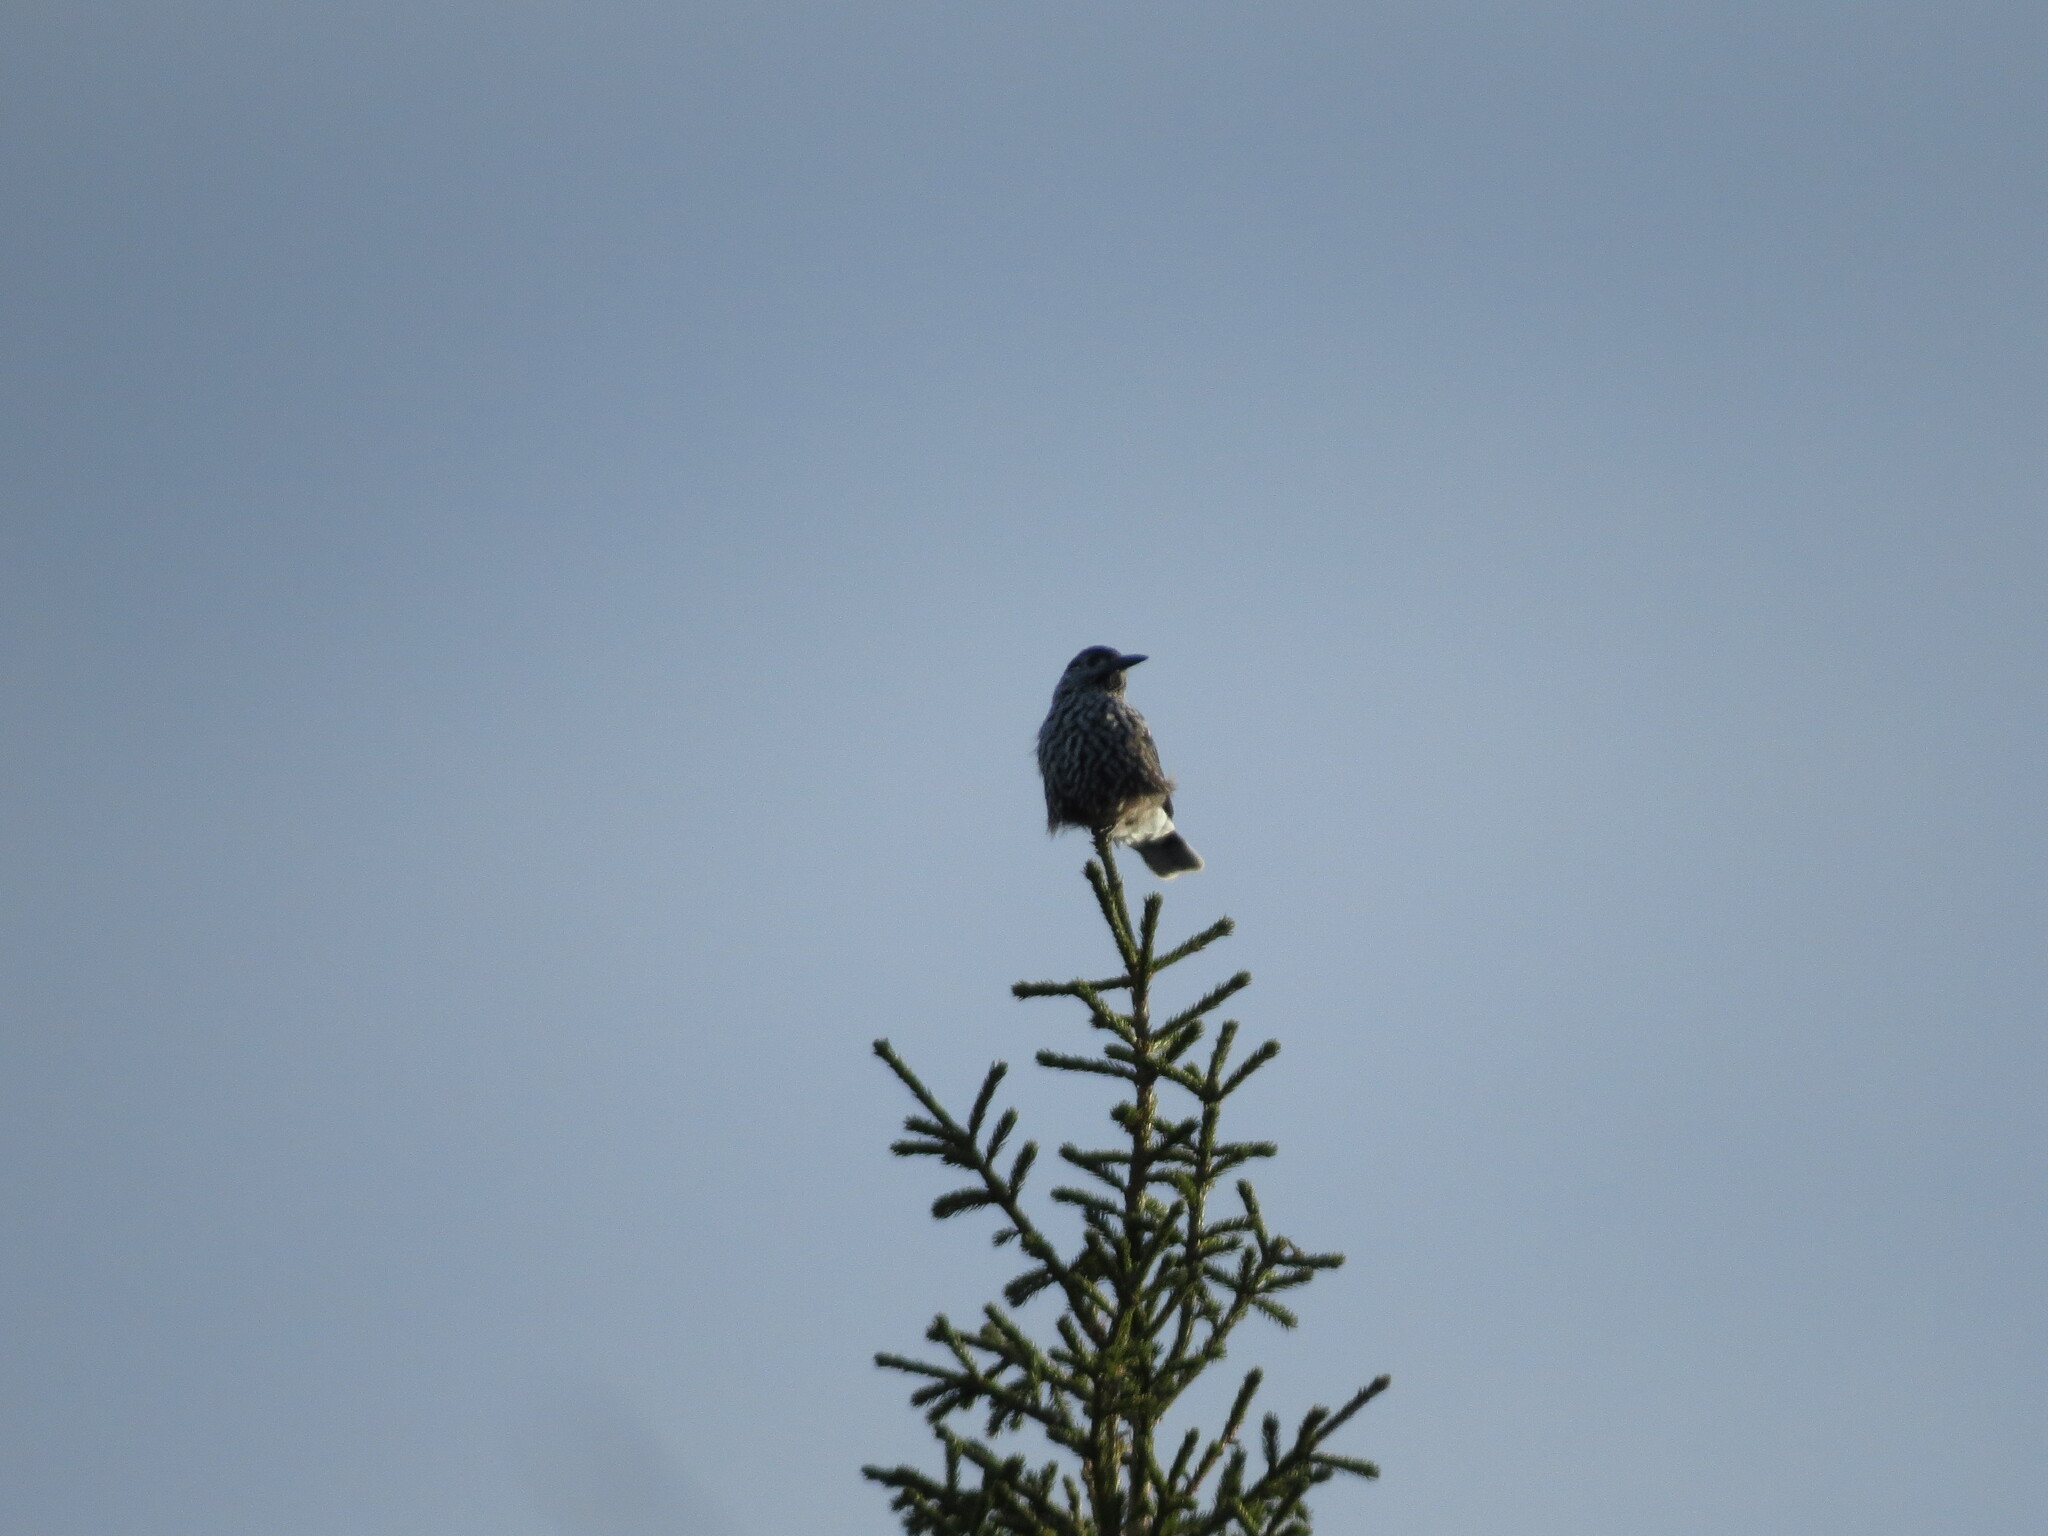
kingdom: Animalia
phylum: Chordata
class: Aves
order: Passeriformes
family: Corvidae
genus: Nucifraga
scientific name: Nucifraga caryocatactes
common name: Spotted nutcracker
